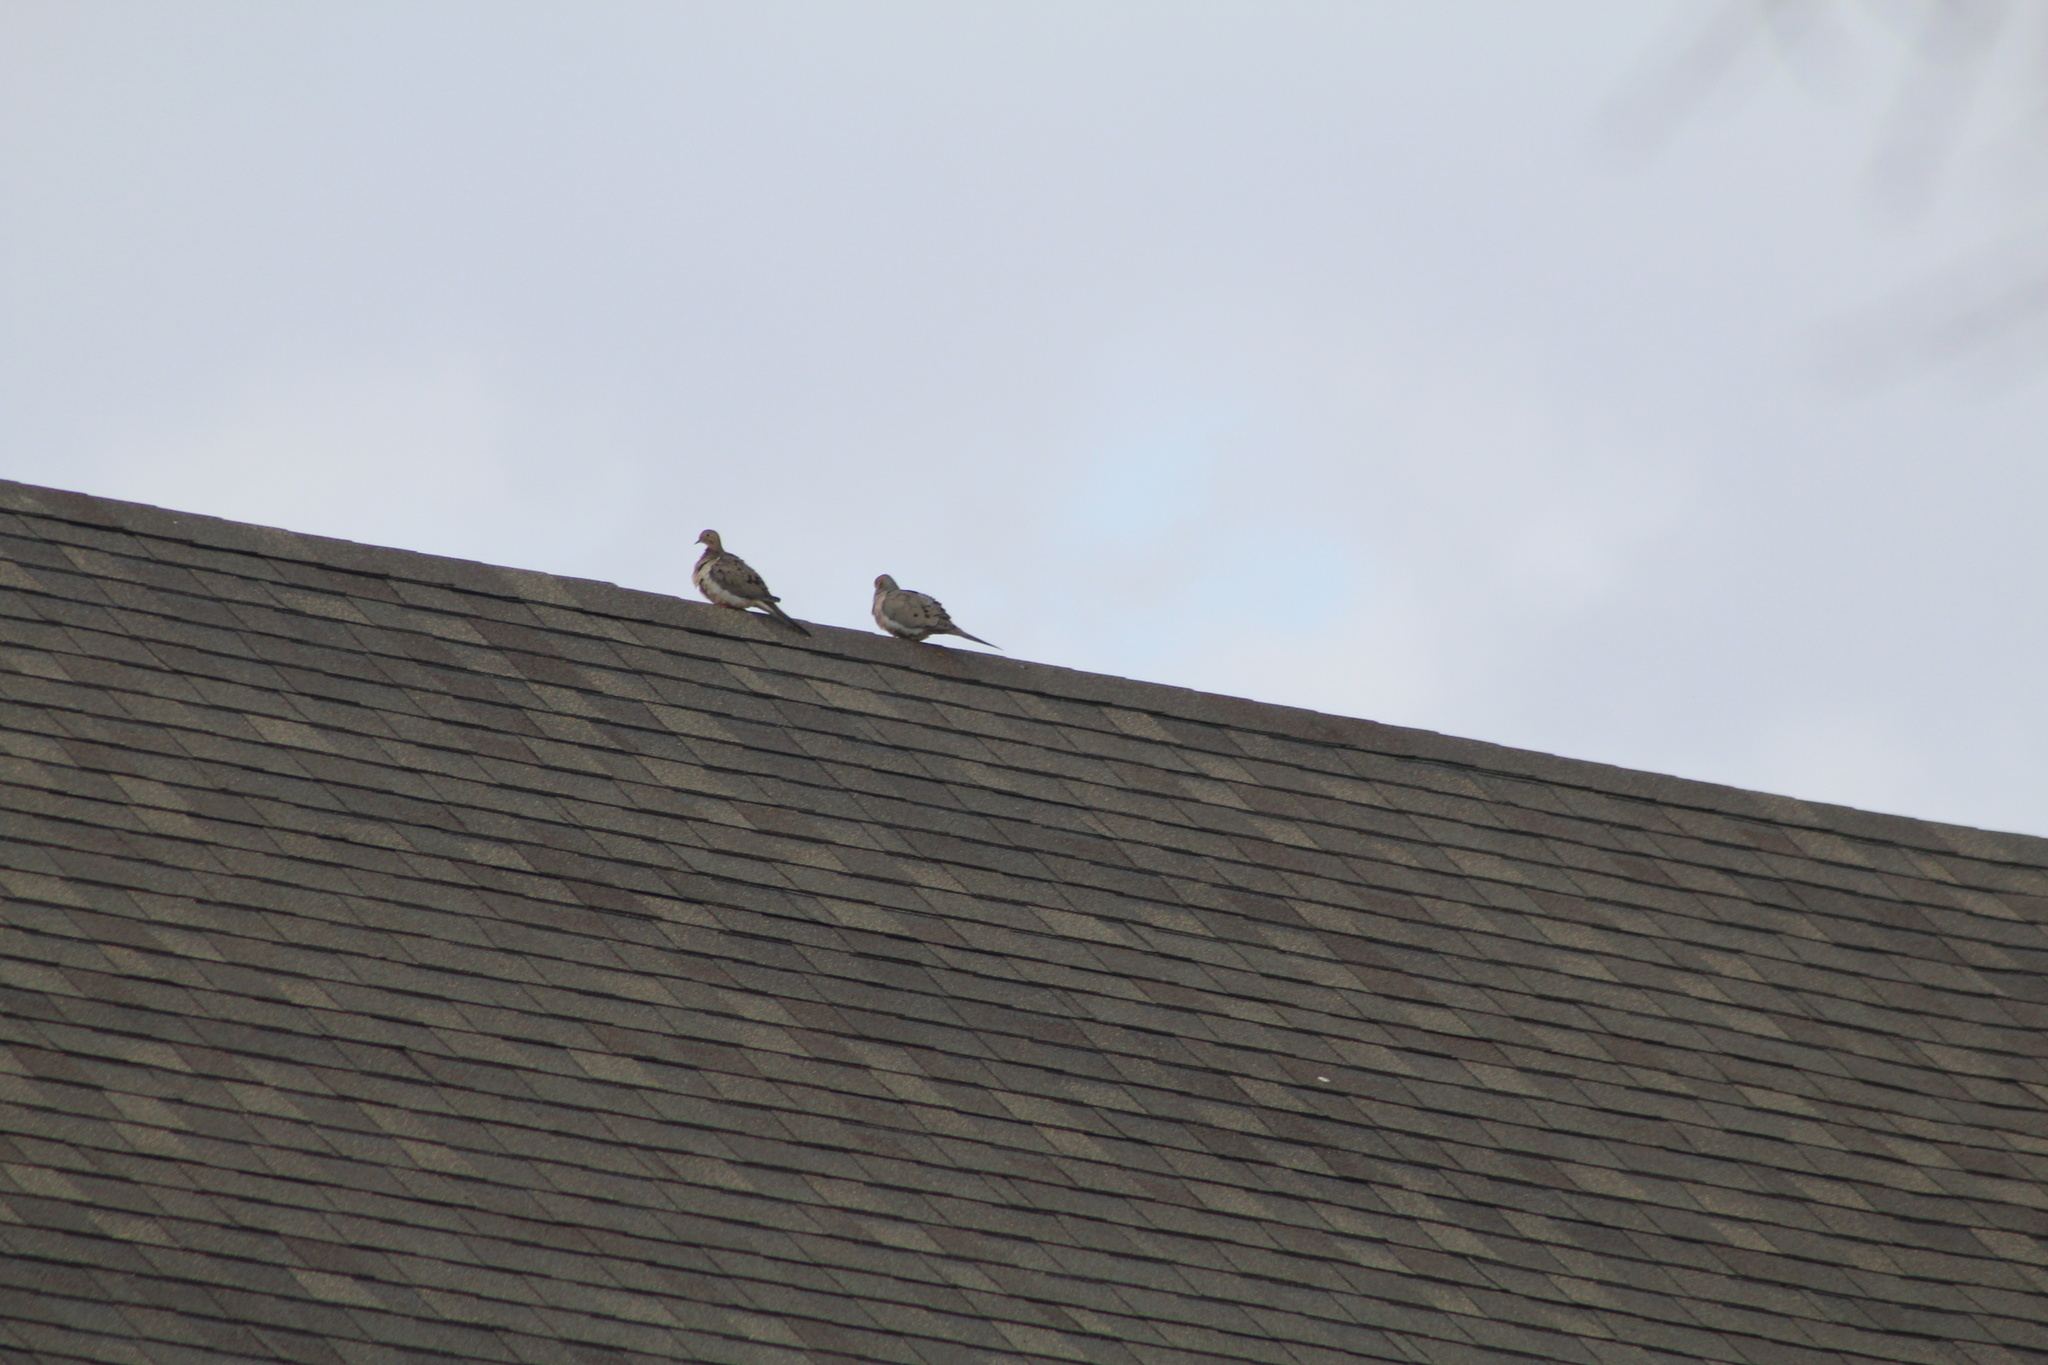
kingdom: Animalia
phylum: Chordata
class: Aves
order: Columbiformes
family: Columbidae
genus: Zenaida
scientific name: Zenaida macroura
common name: Mourning dove
